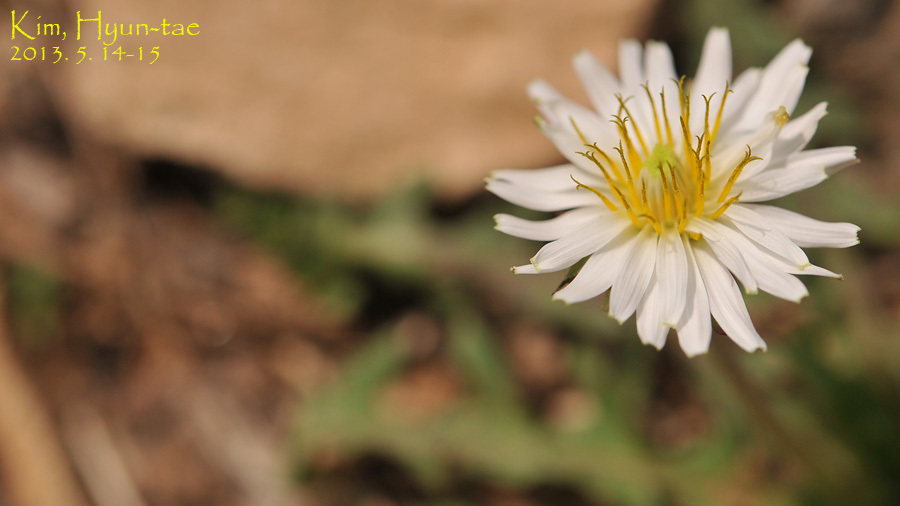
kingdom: Plantae
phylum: Tracheophyta
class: Magnoliopsida
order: Asterales
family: Asteraceae
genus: Taraxacum
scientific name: Taraxacum coreanum
